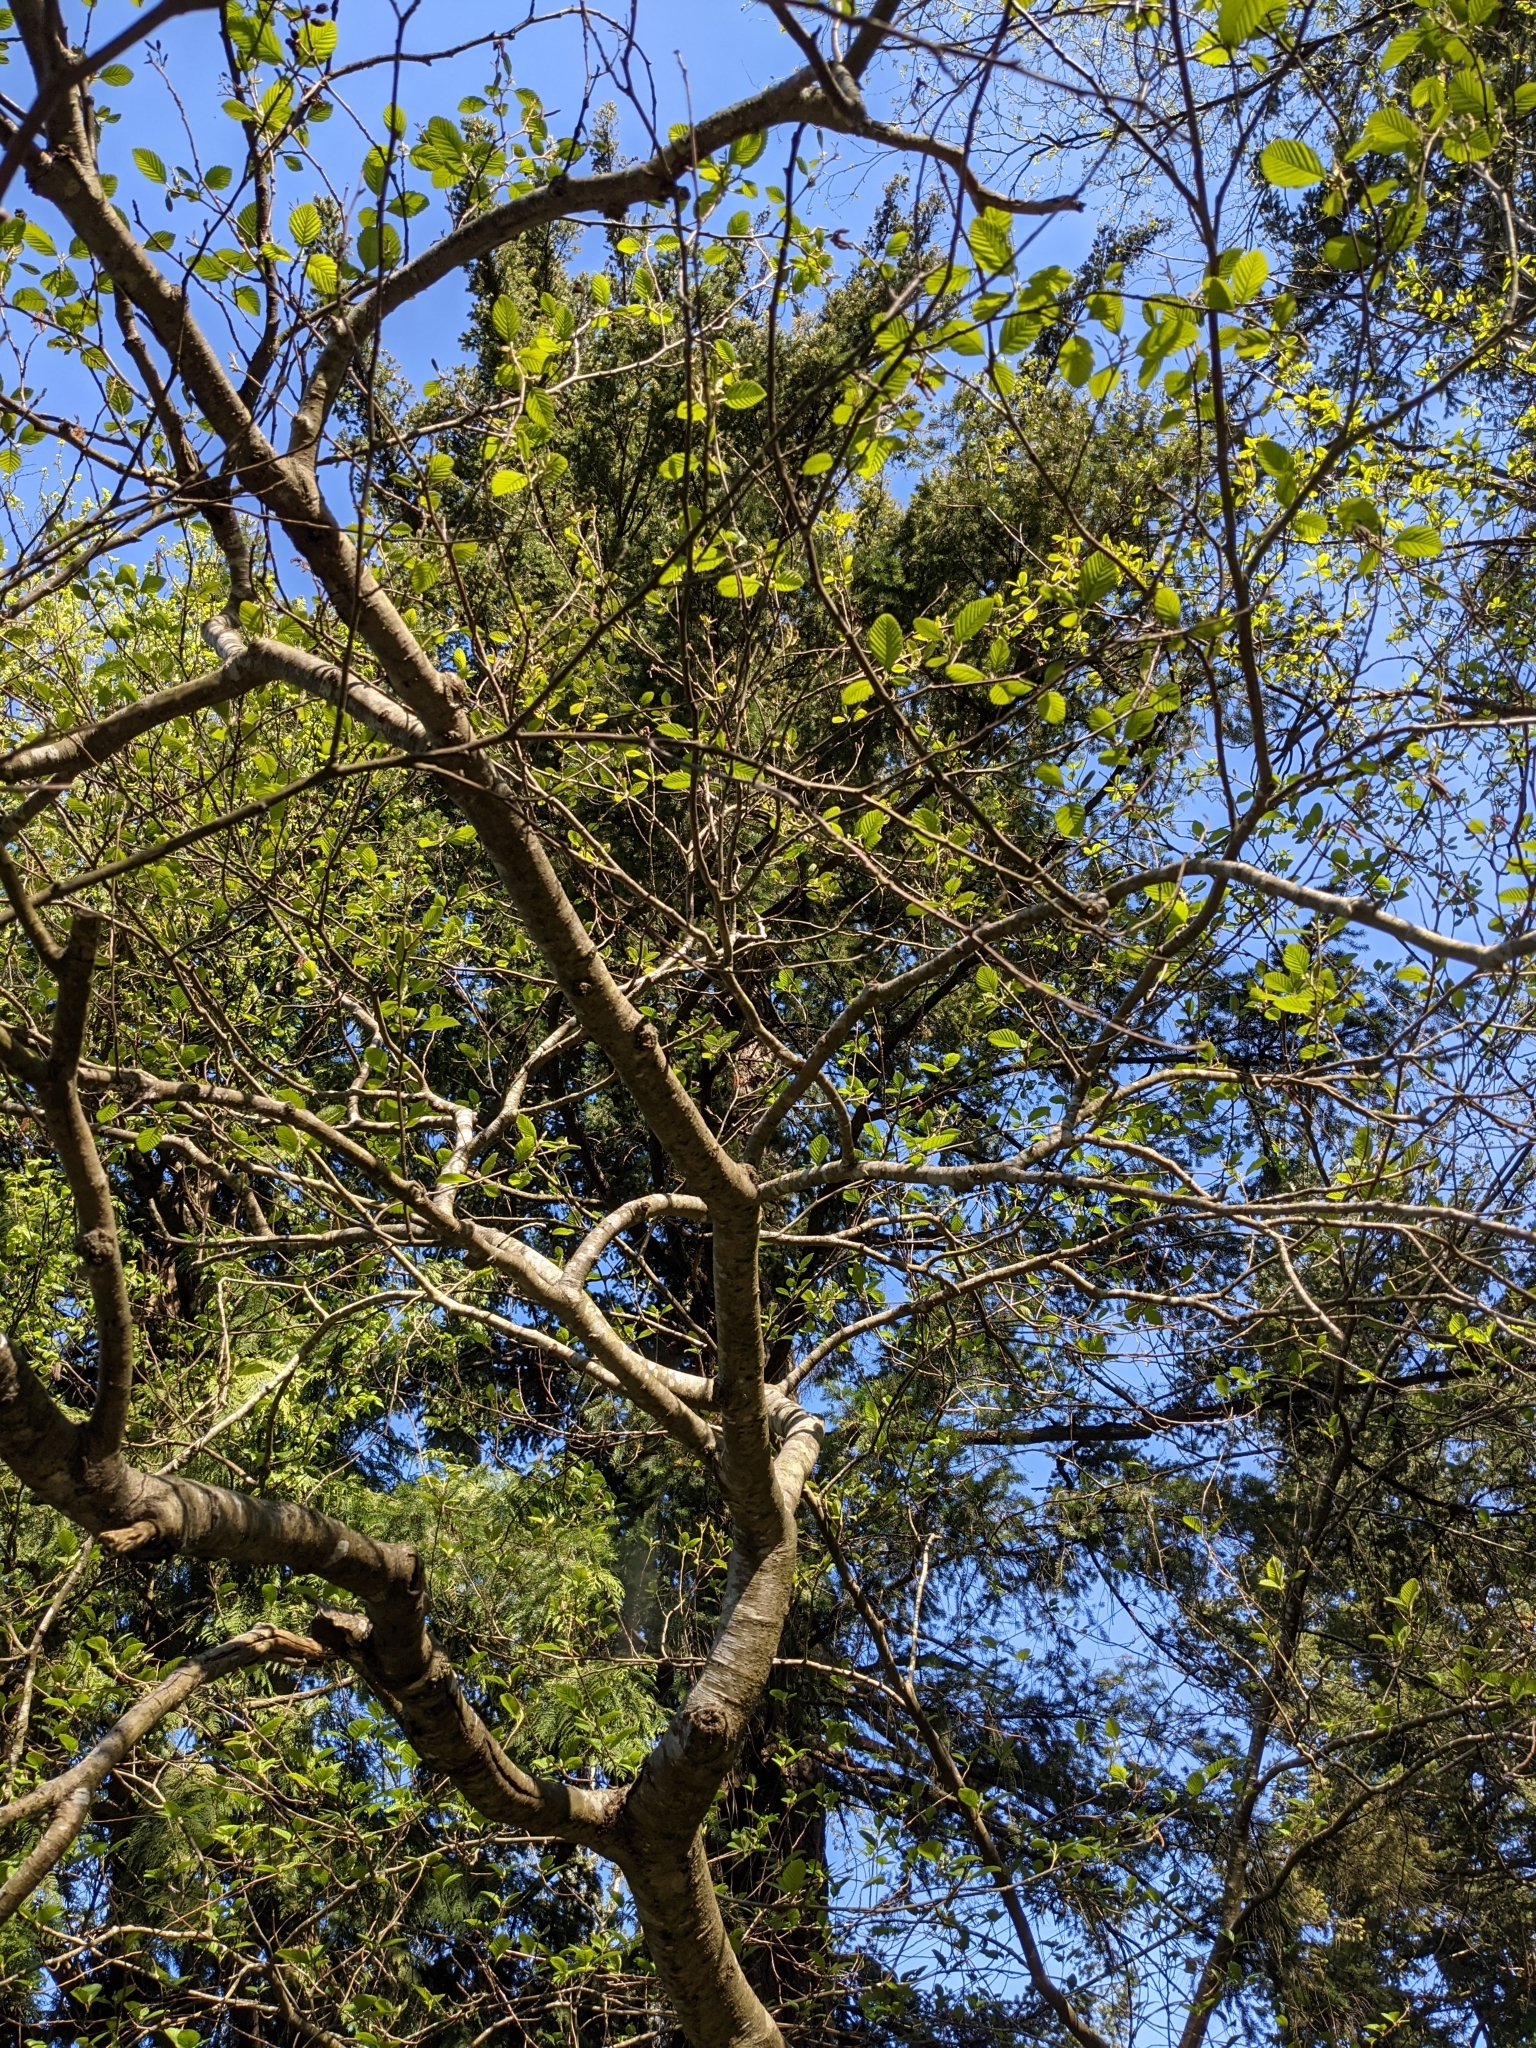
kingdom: Plantae
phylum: Tracheophyta
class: Magnoliopsida
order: Fagales
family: Betulaceae
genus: Alnus
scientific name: Alnus rubra
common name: Red alder
